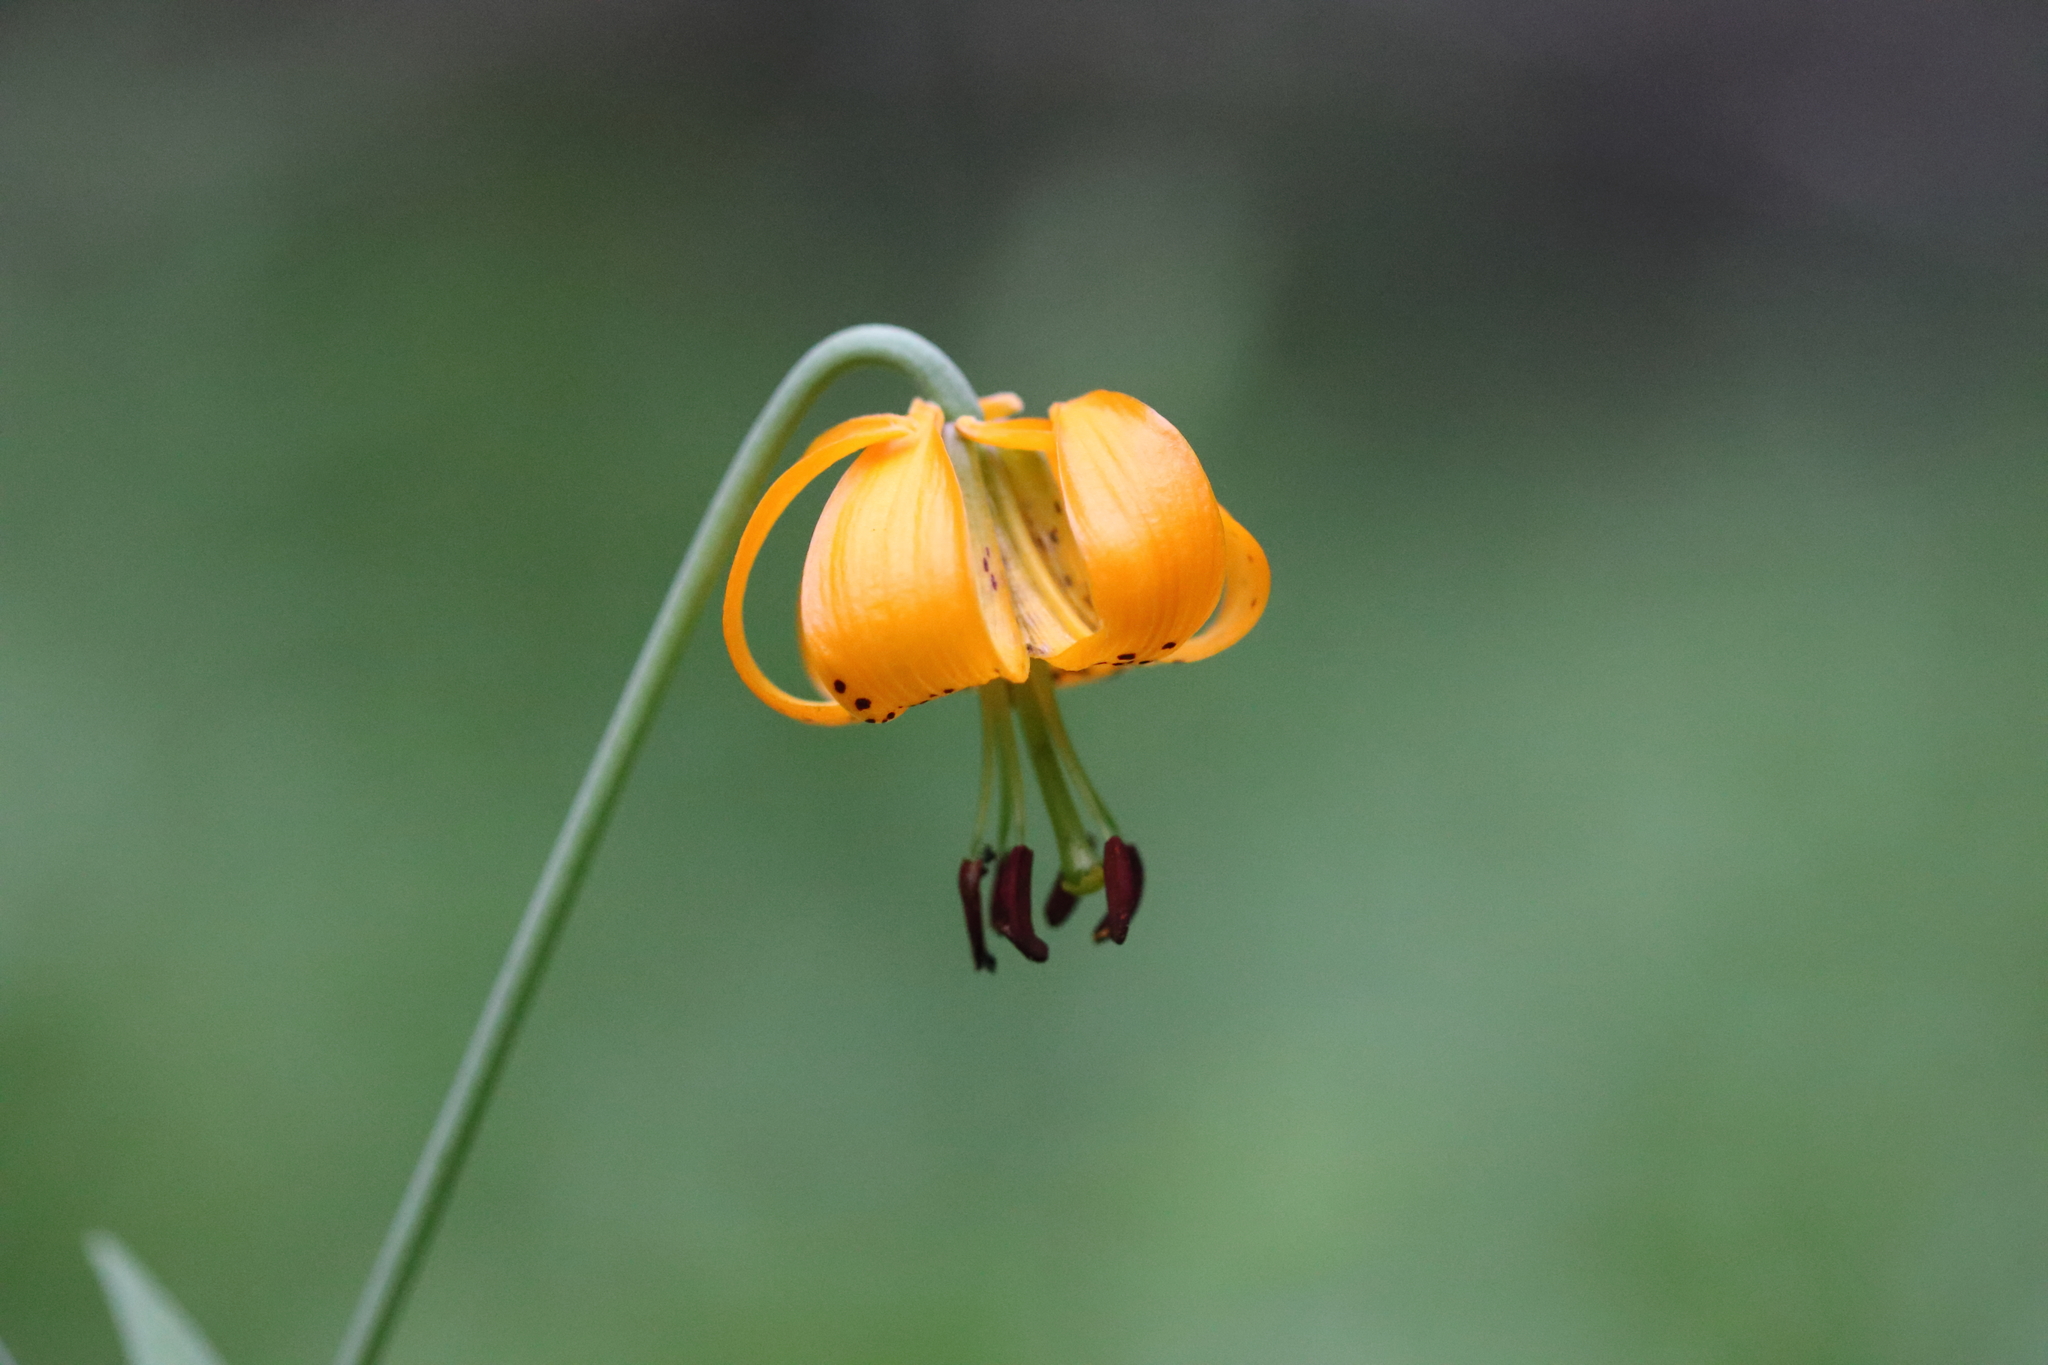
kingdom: Plantae
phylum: Tracheophyta
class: Liliopsida
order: Liliales
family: Liliaceae
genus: Lilium
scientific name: Lilium columbianum
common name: Columbia lily
